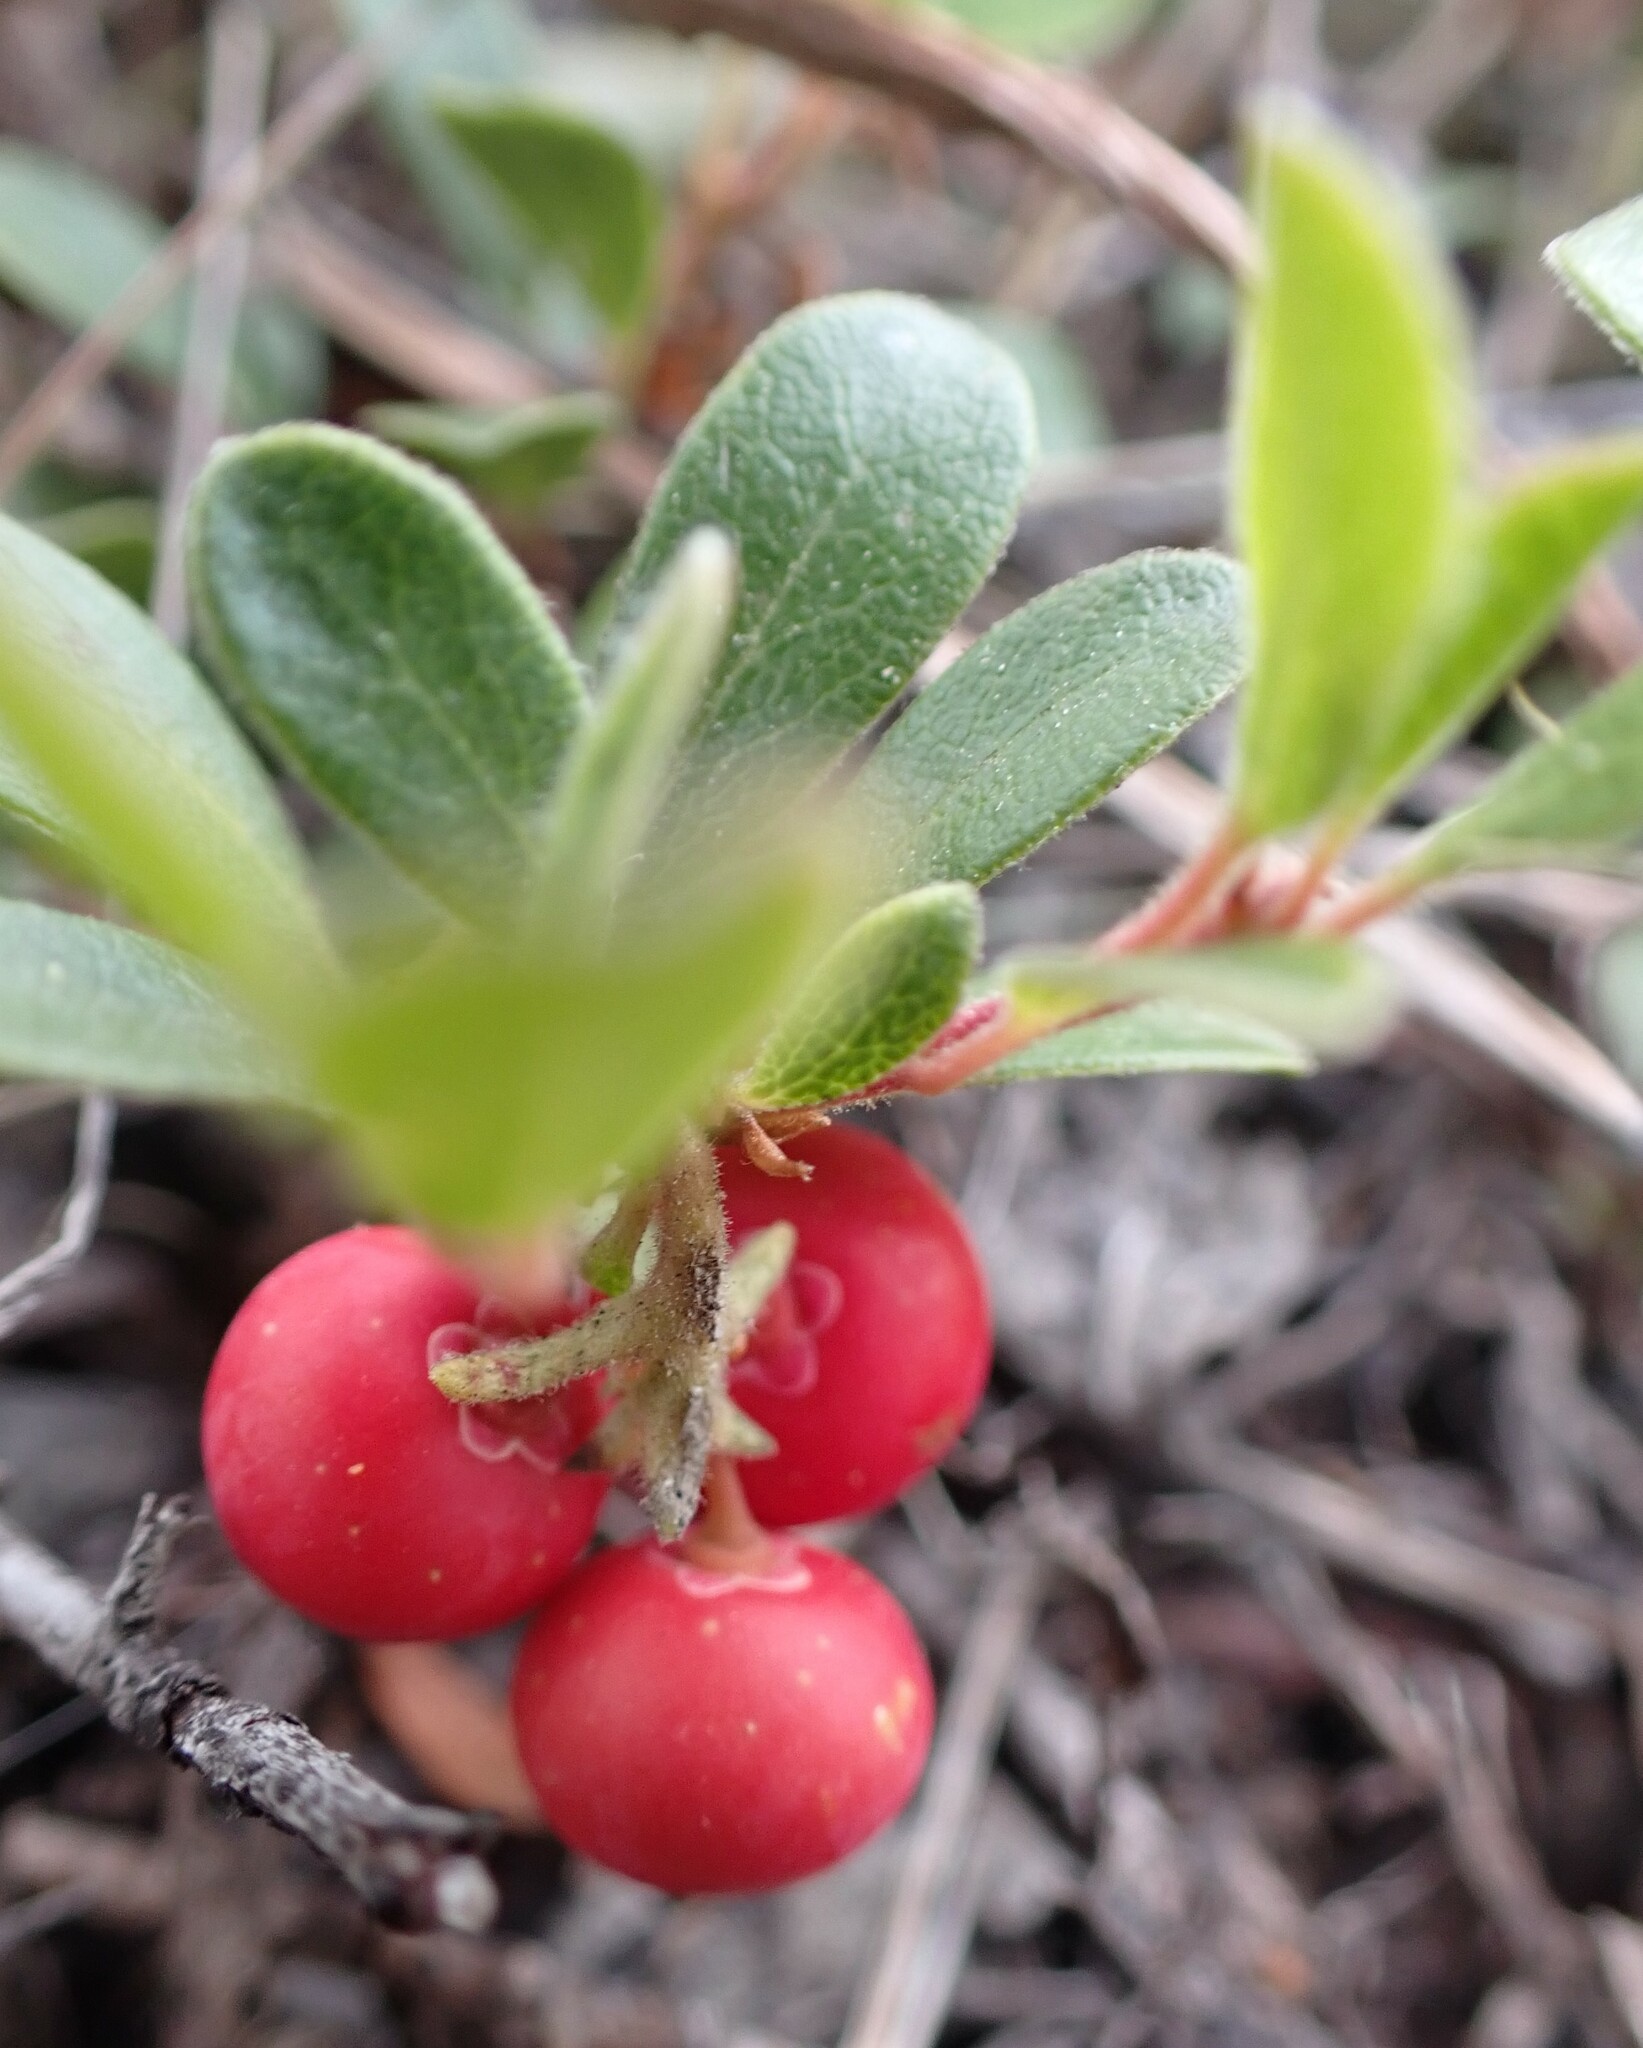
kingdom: Plantae
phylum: Tracheophyta
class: Magnoliopsida
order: Ericales
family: Ericaceae
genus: Arctostaphylos
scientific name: Arctostaphylos uva-ursi
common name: Bearberry
